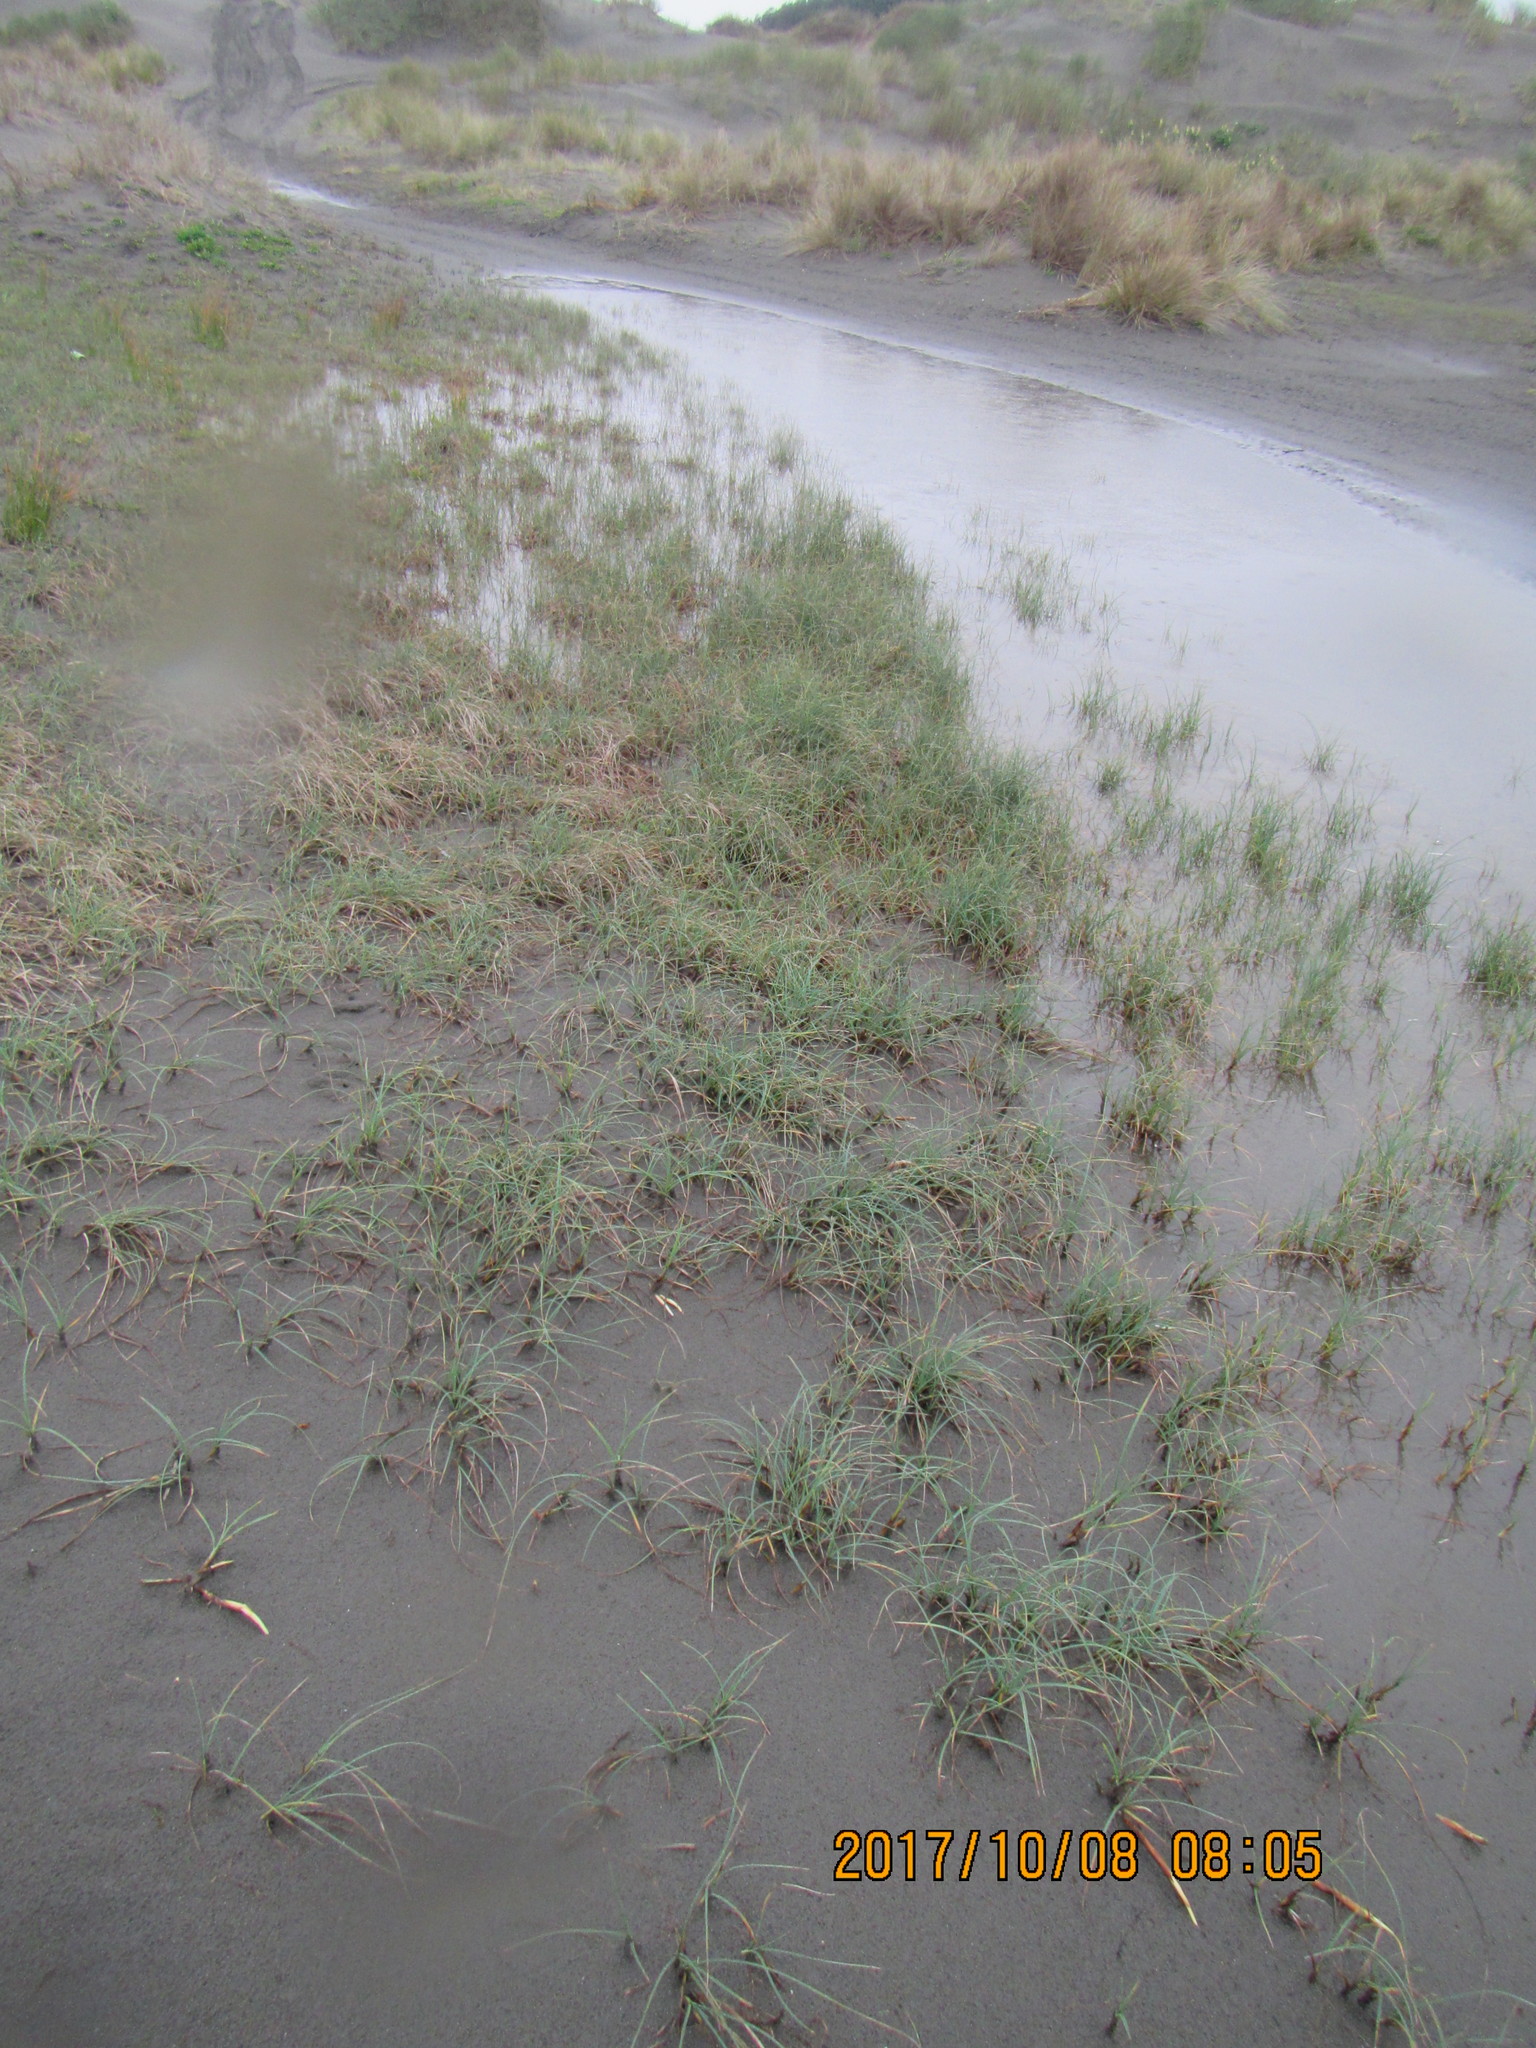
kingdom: Plantae
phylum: Tracheophyta
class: Liliopsida
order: Poales
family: Cyperaceae
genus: Carex
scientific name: Carex pumila
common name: Dwarf sedge
